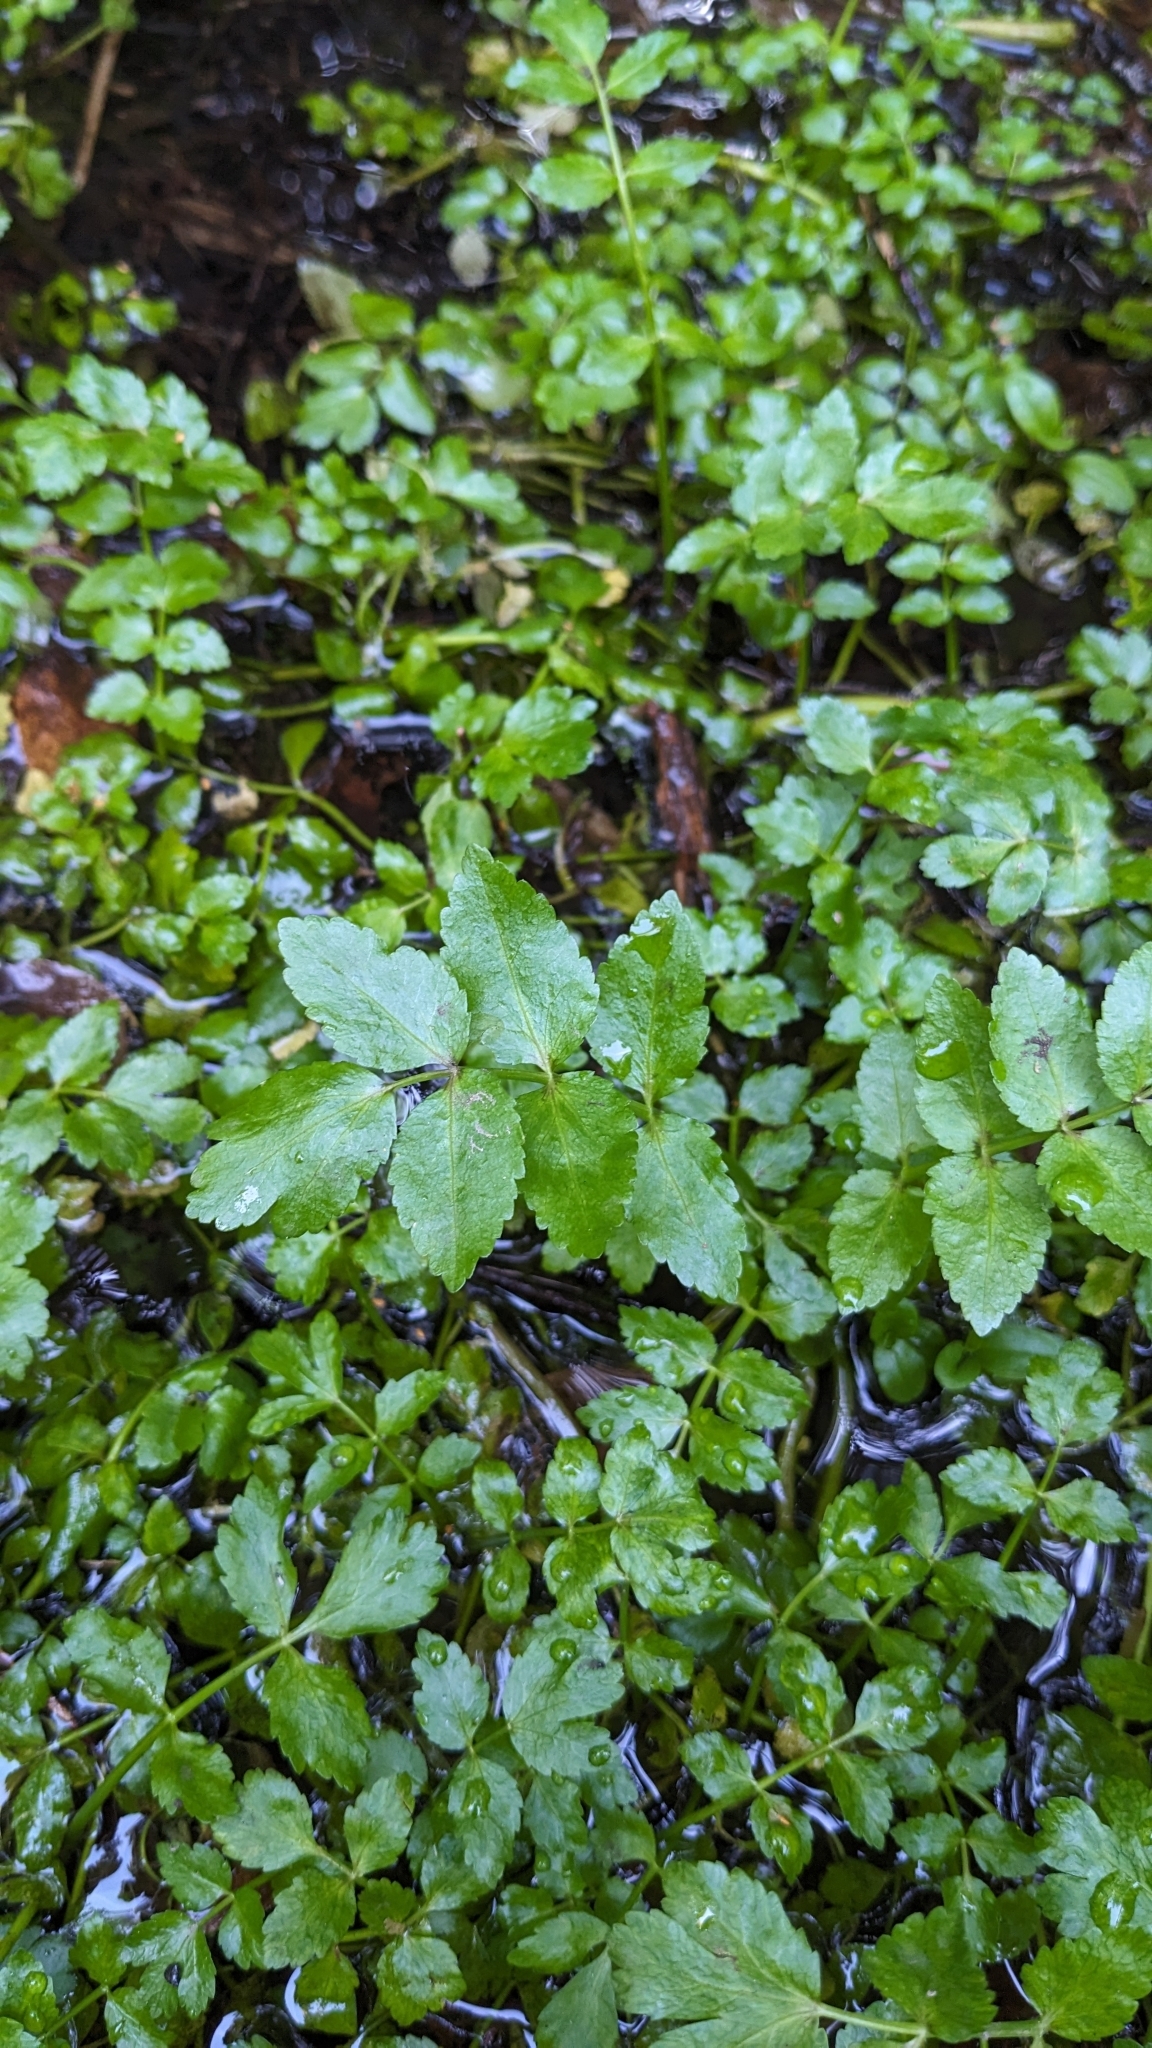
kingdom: Plantae
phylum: Tracheophyta
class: Magnoliopsida
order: Apiales
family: Apiaceae
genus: Helosciadium
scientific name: Helosciadium nodiflorum
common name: Fool's-watercress
